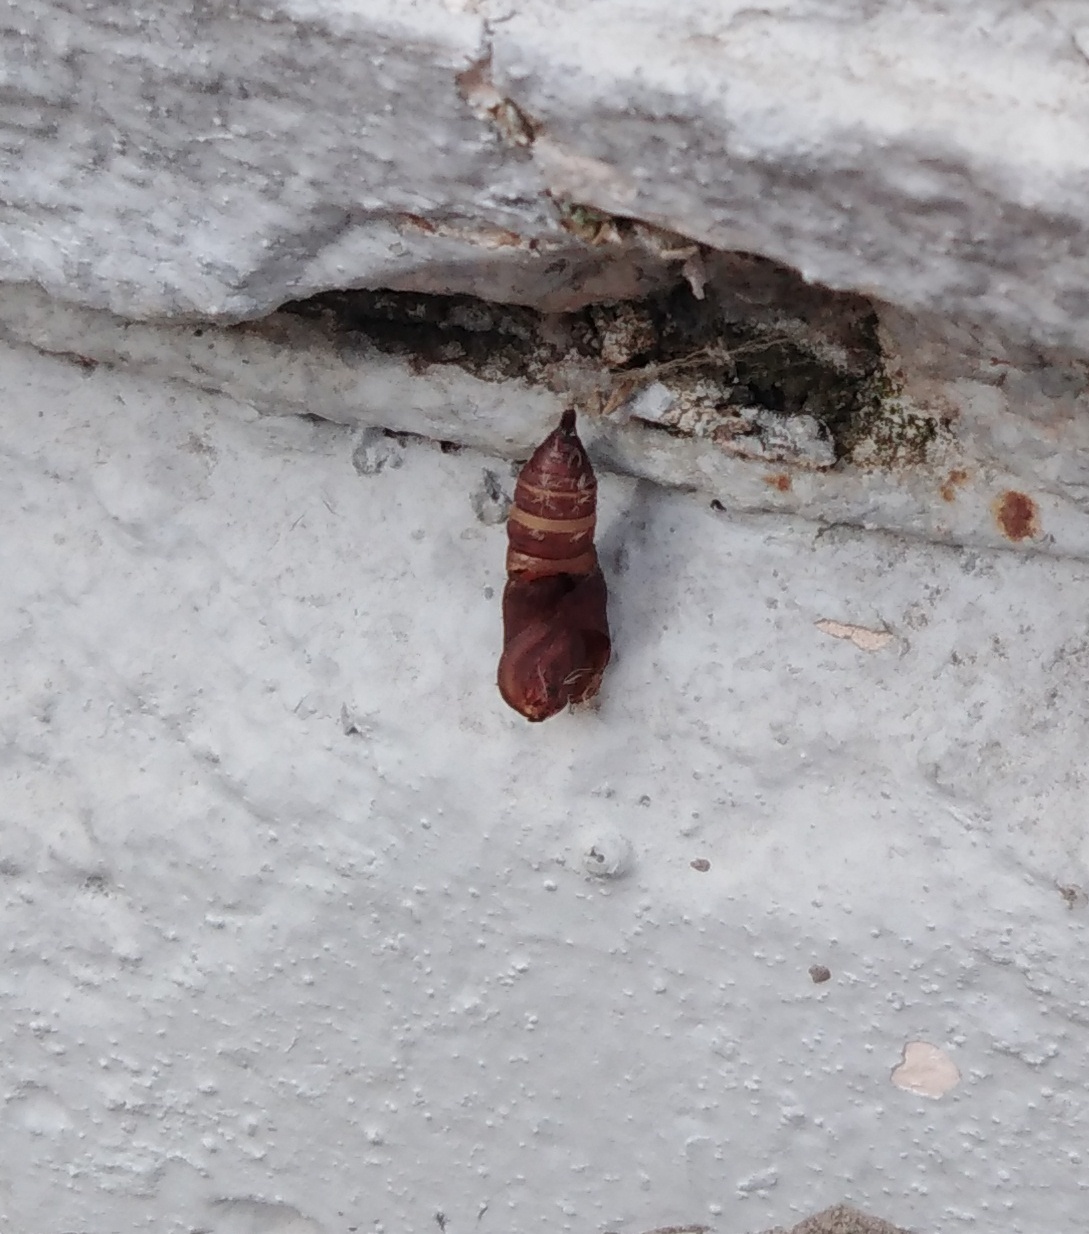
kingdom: Animalia
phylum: Arthropoda
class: Insecta
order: Lepidoptera
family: Erebidae
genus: Lymantria
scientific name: Lymantria dispar
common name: Gypsy moth
